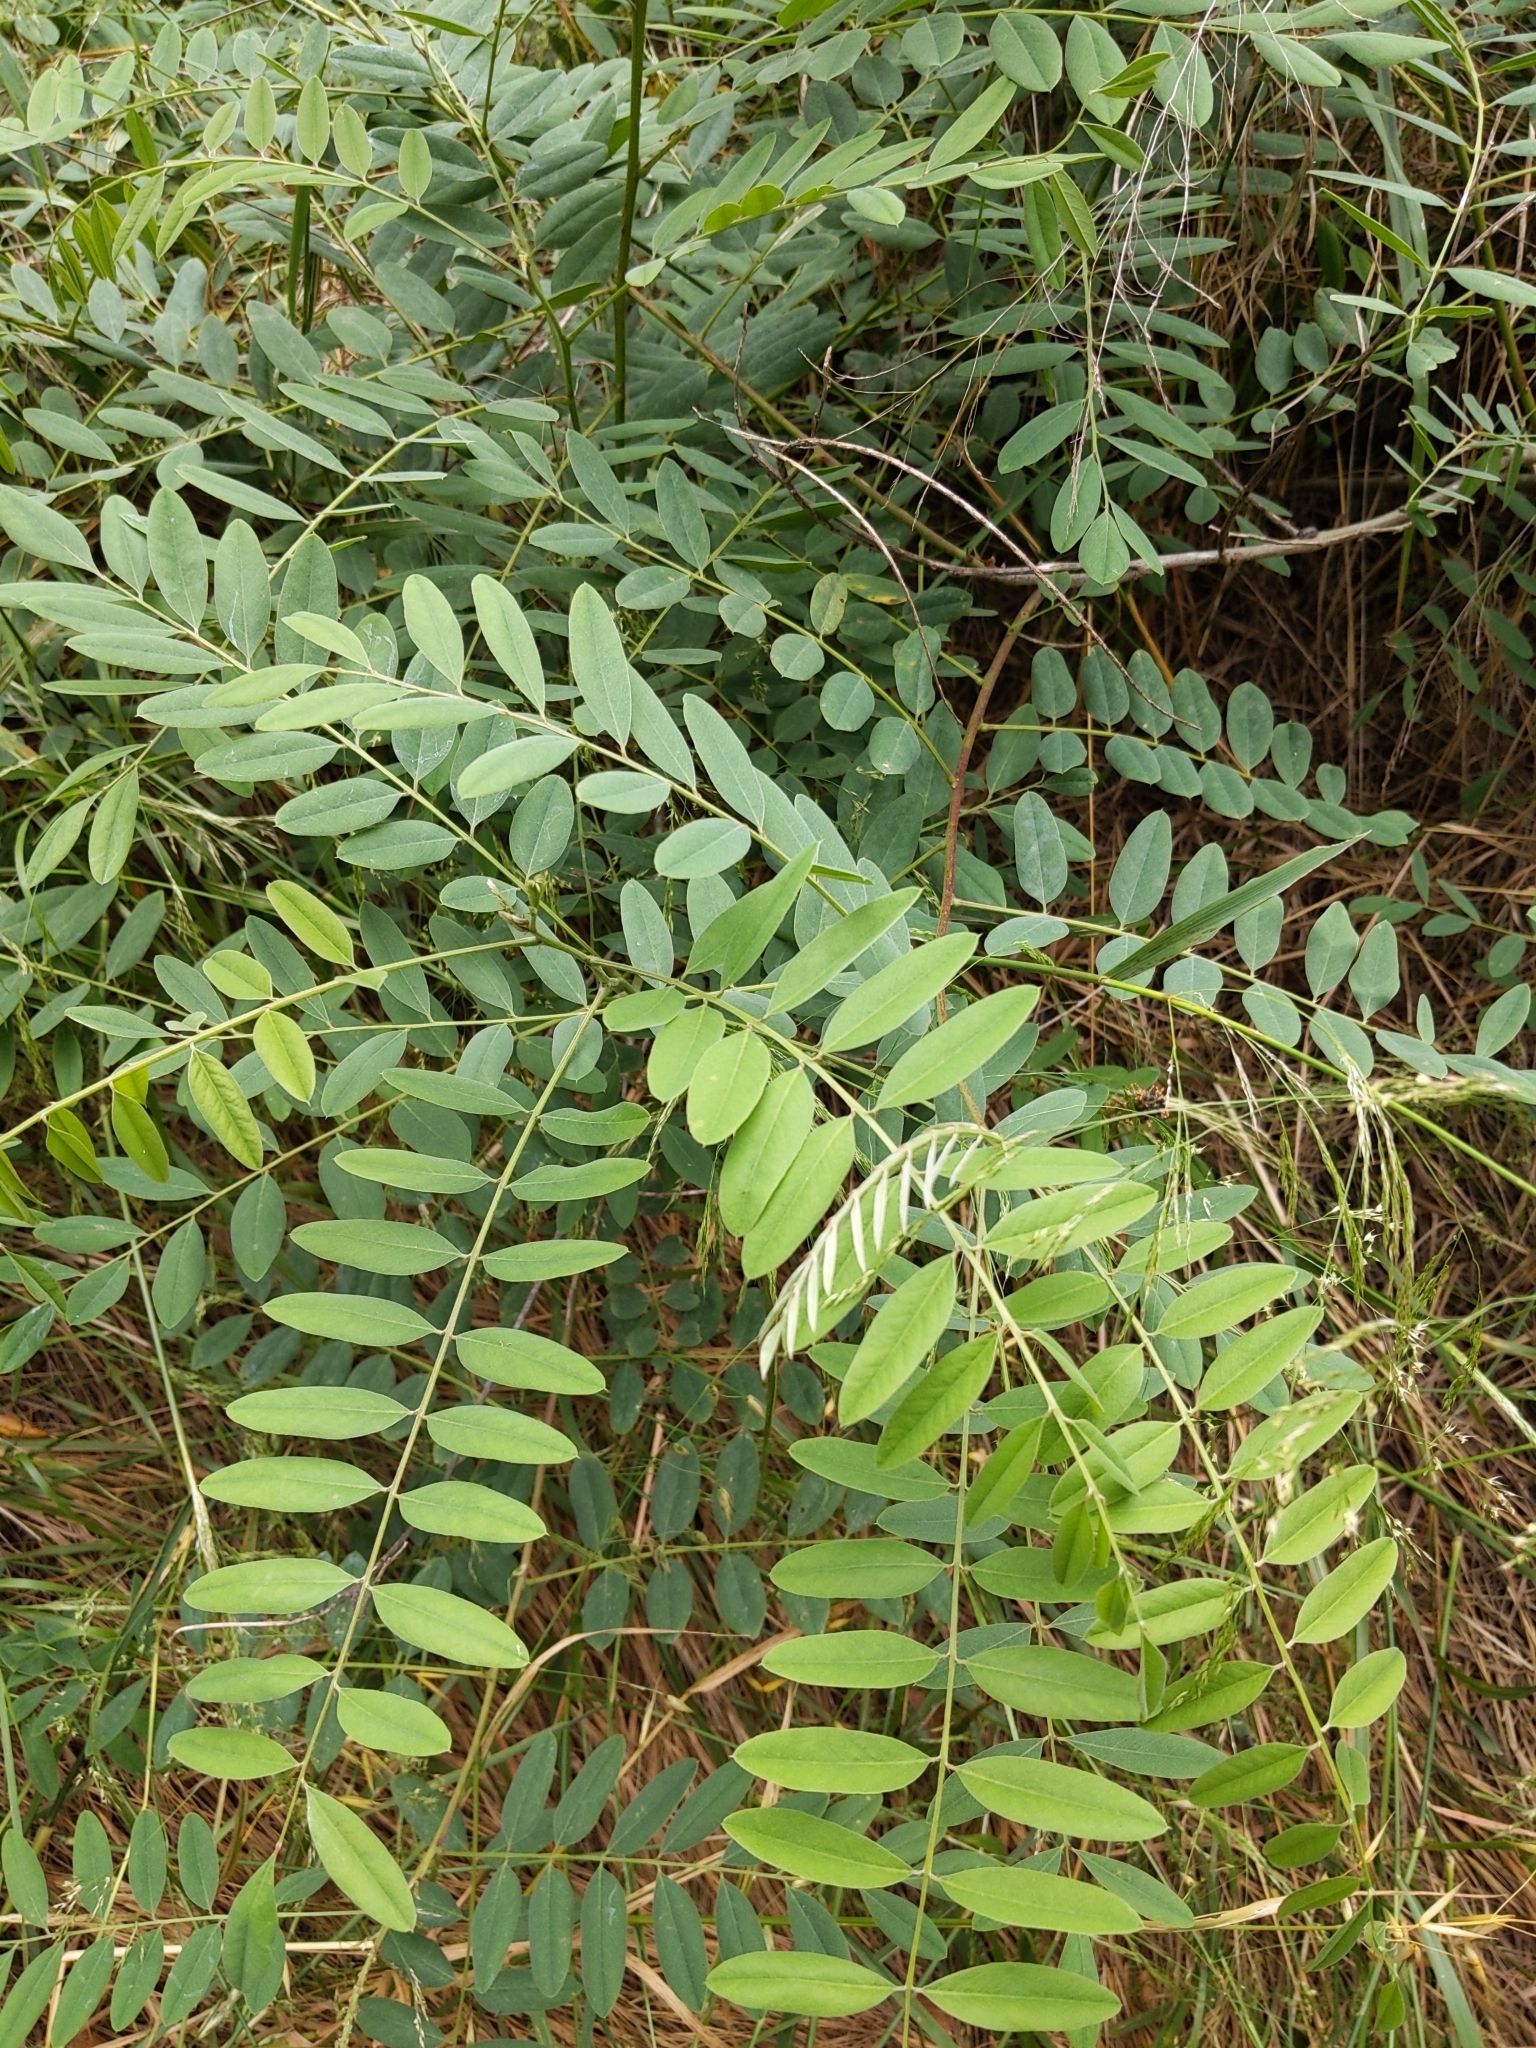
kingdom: Plantae
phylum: Tracheophyta
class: Magnoliopsida
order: Fabales
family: Fabaceae
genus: Amorpha
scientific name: Amorpha fruticosa
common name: False indigo
